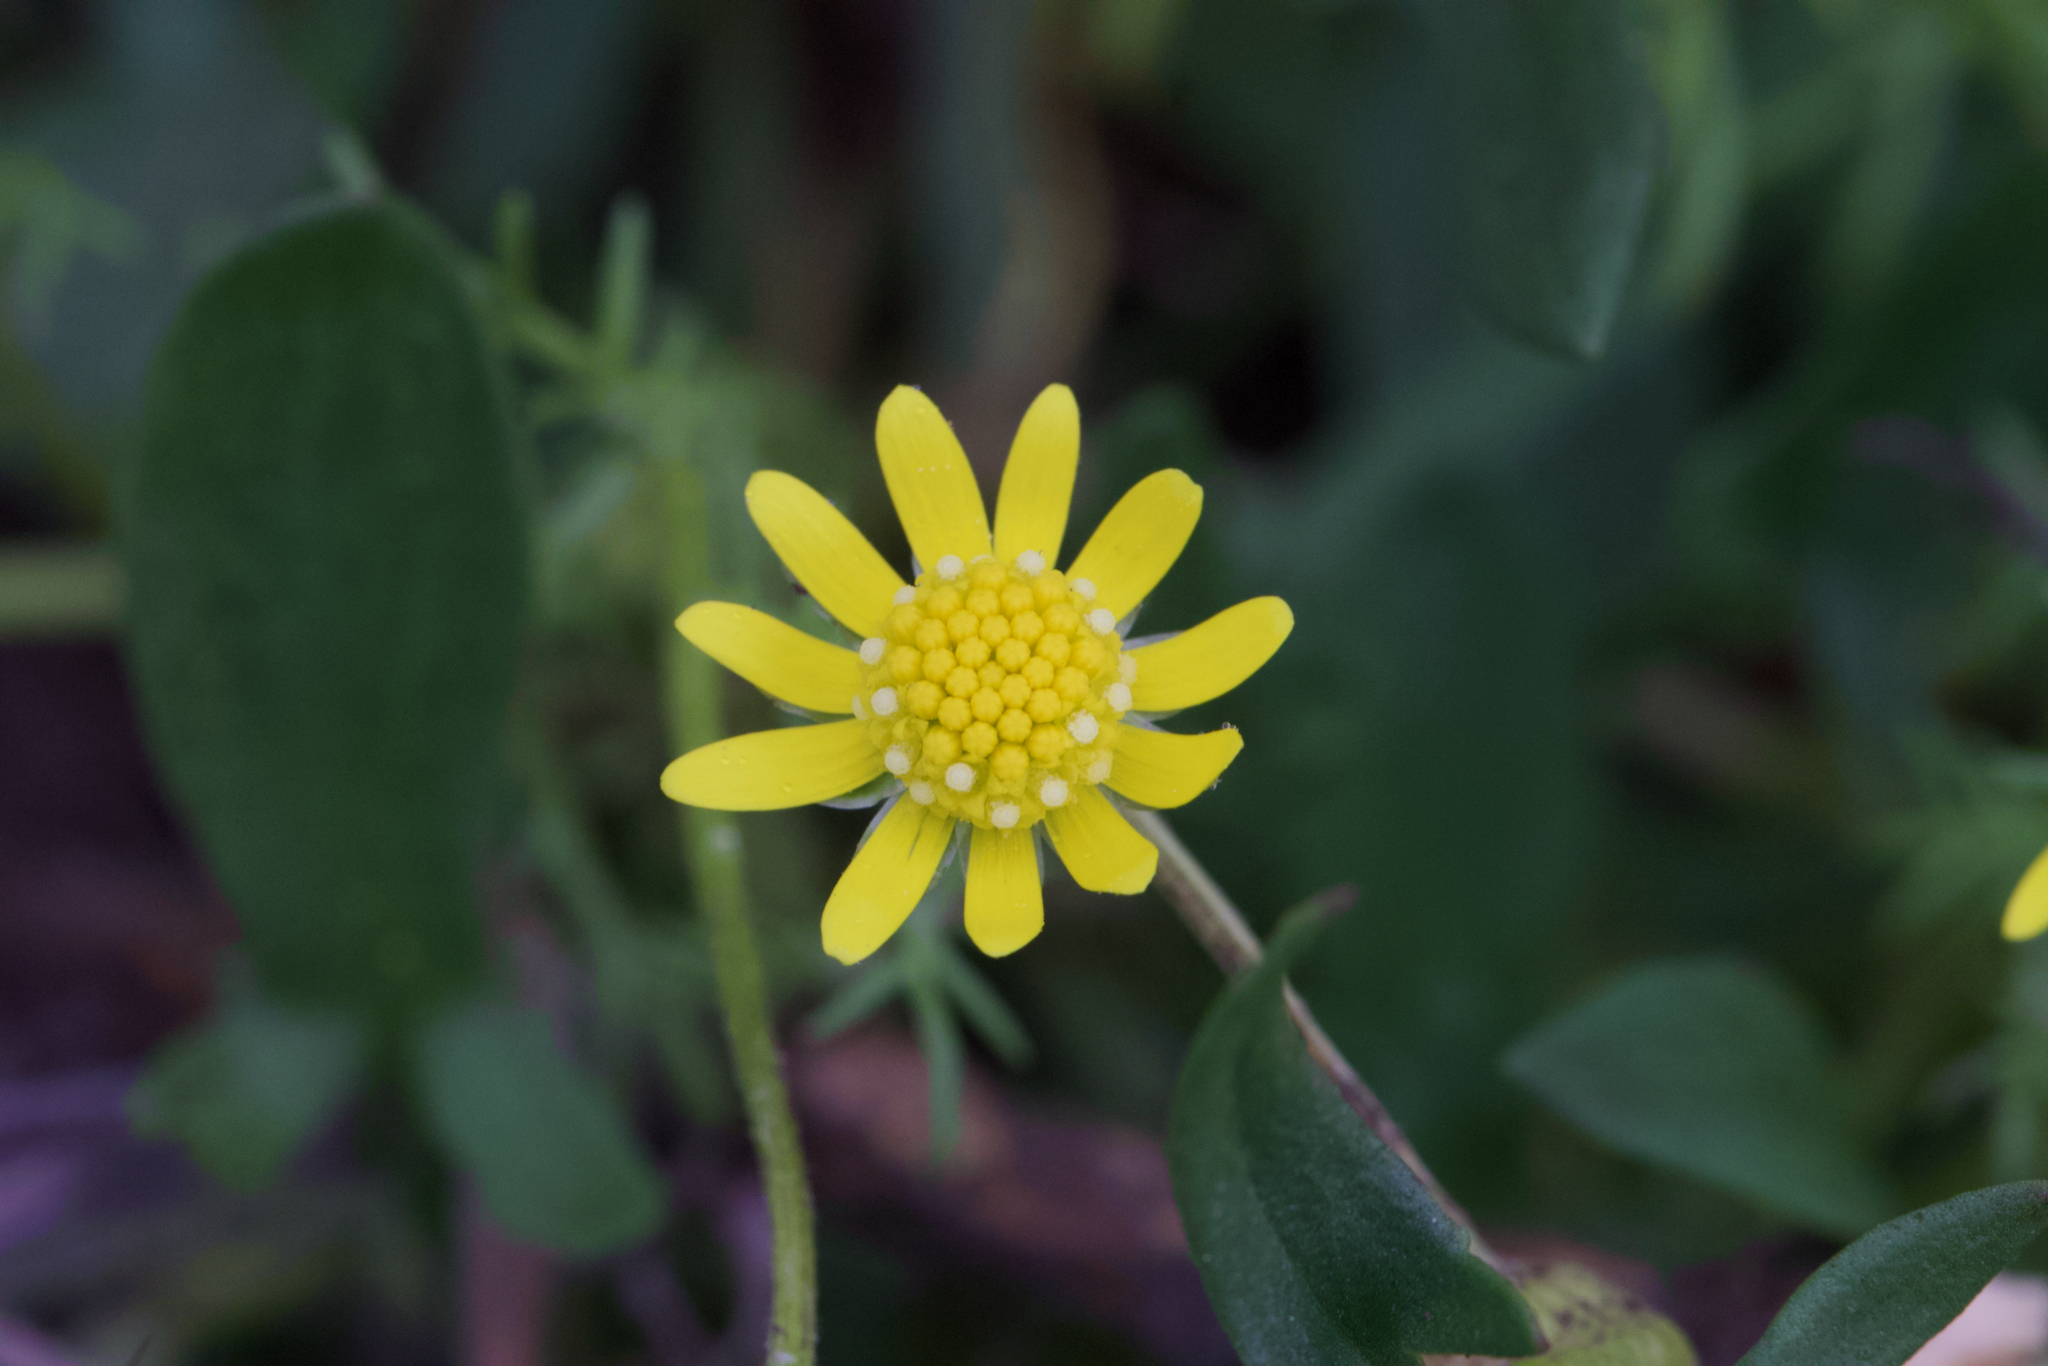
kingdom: Plantae
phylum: Tracheophyta
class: Magnoliopsida
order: Asterales
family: Asteraceae
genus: Blennosperma
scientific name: Blennosperma nanum
